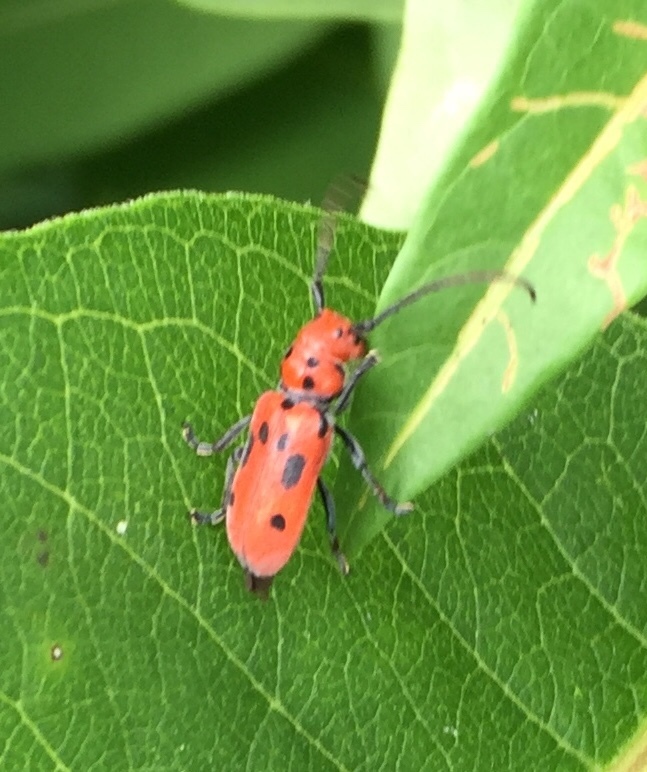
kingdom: Animalia
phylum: Arthropoda
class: Insecta
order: Coleoptera
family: Cerambycidae
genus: Tetraopes
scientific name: Tetraopes tetrophthalmus
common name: Red milkweed beetle
